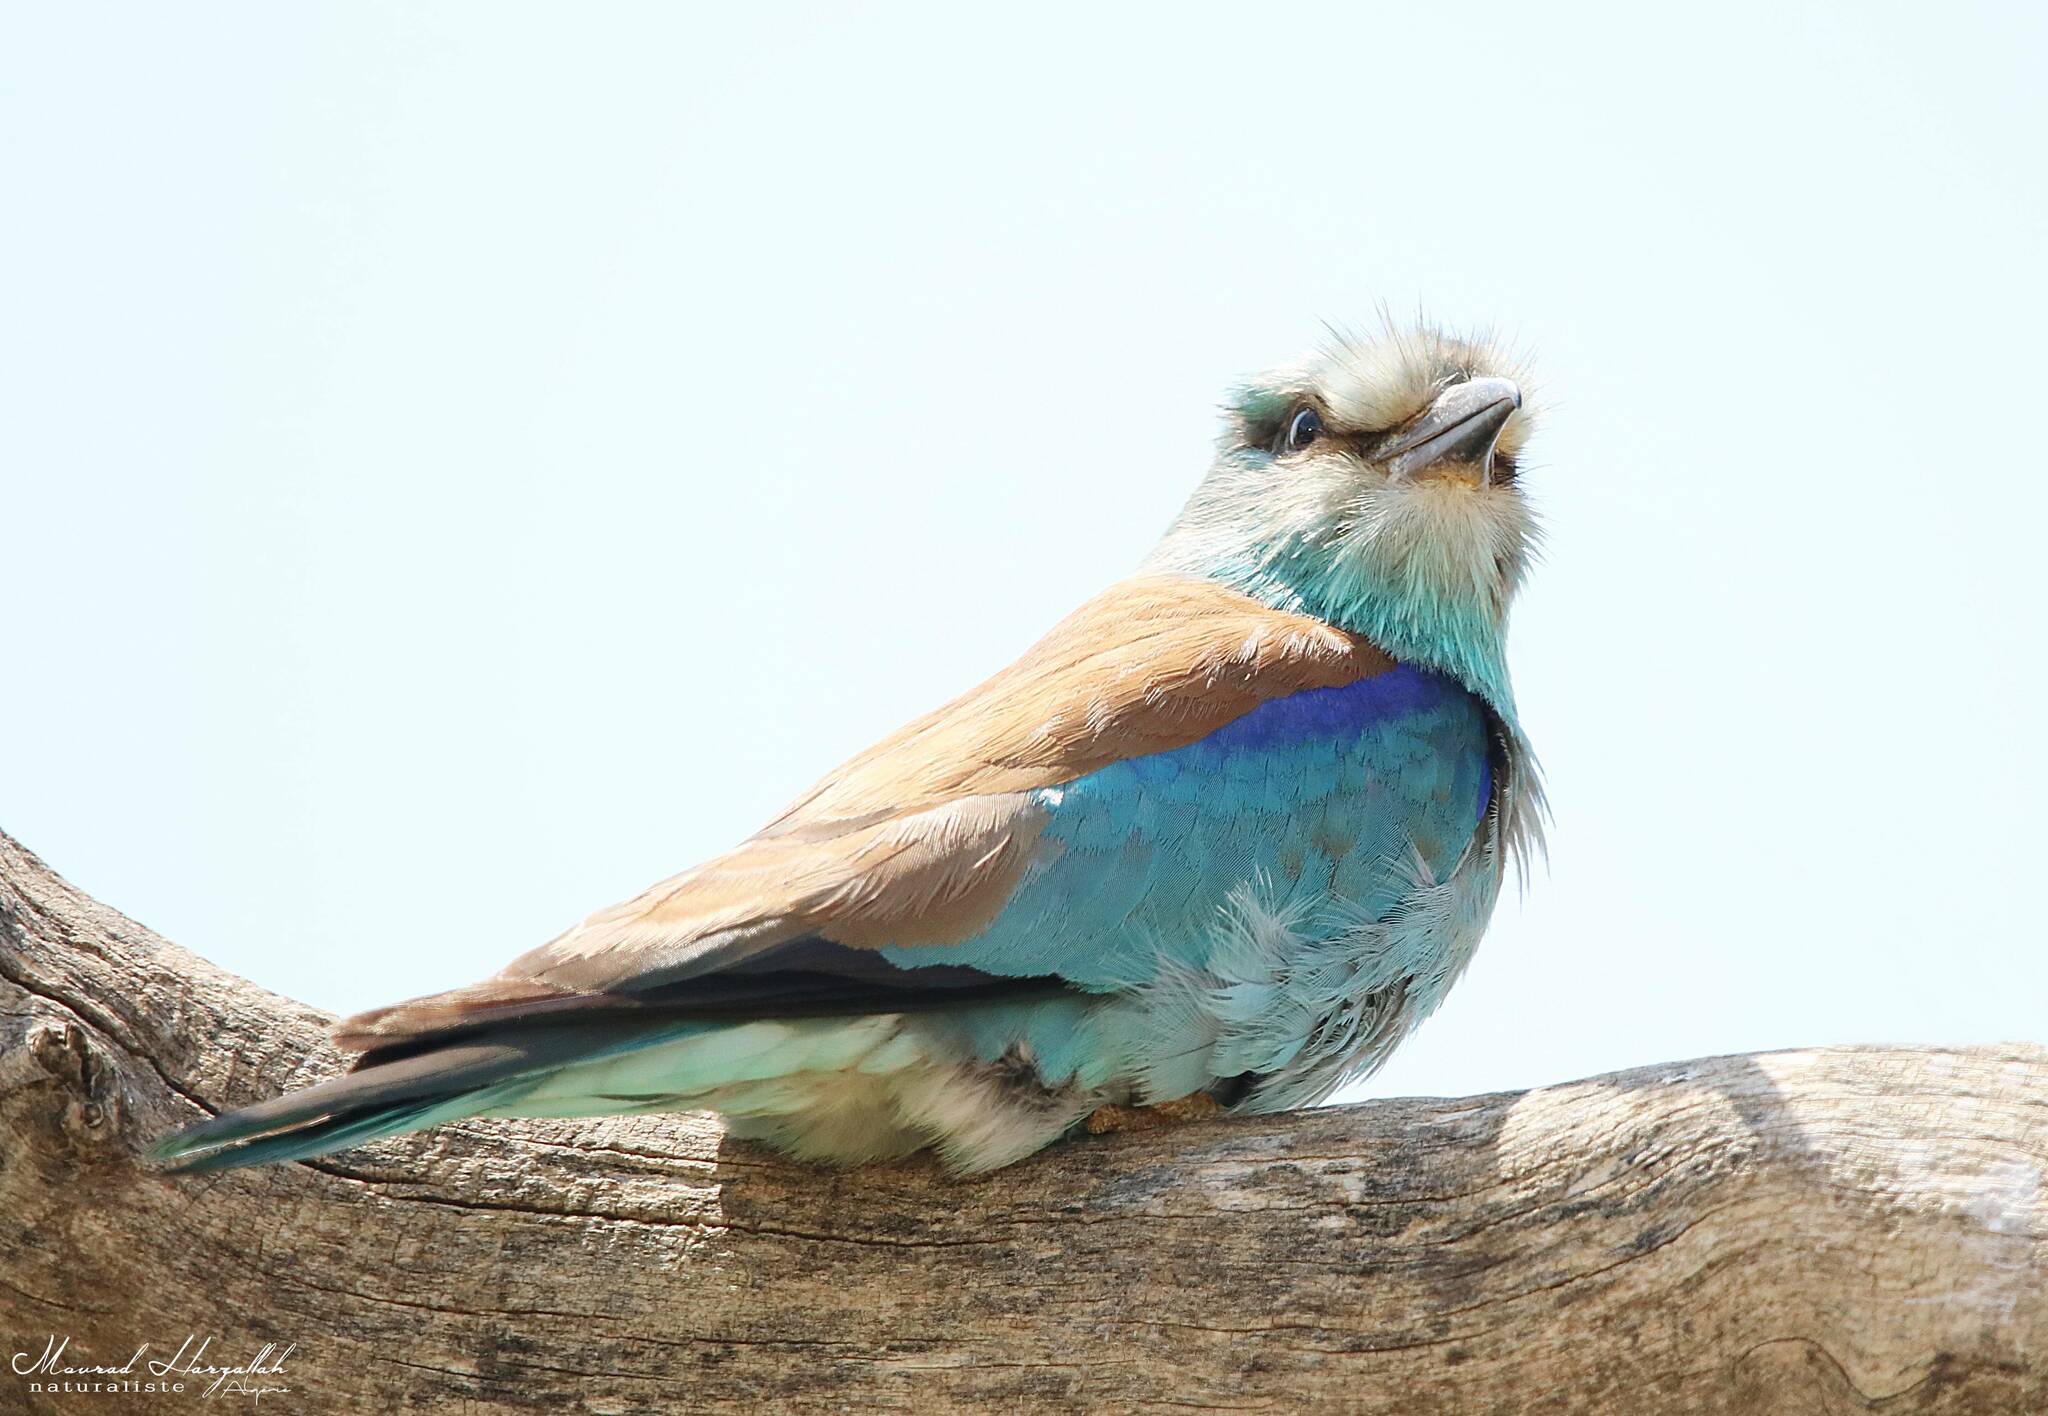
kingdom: Animalia
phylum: Chordata
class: Aves
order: Coraciiformes
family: Coraciidae
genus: Coracias
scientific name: Coracias garrulus
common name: European roller
